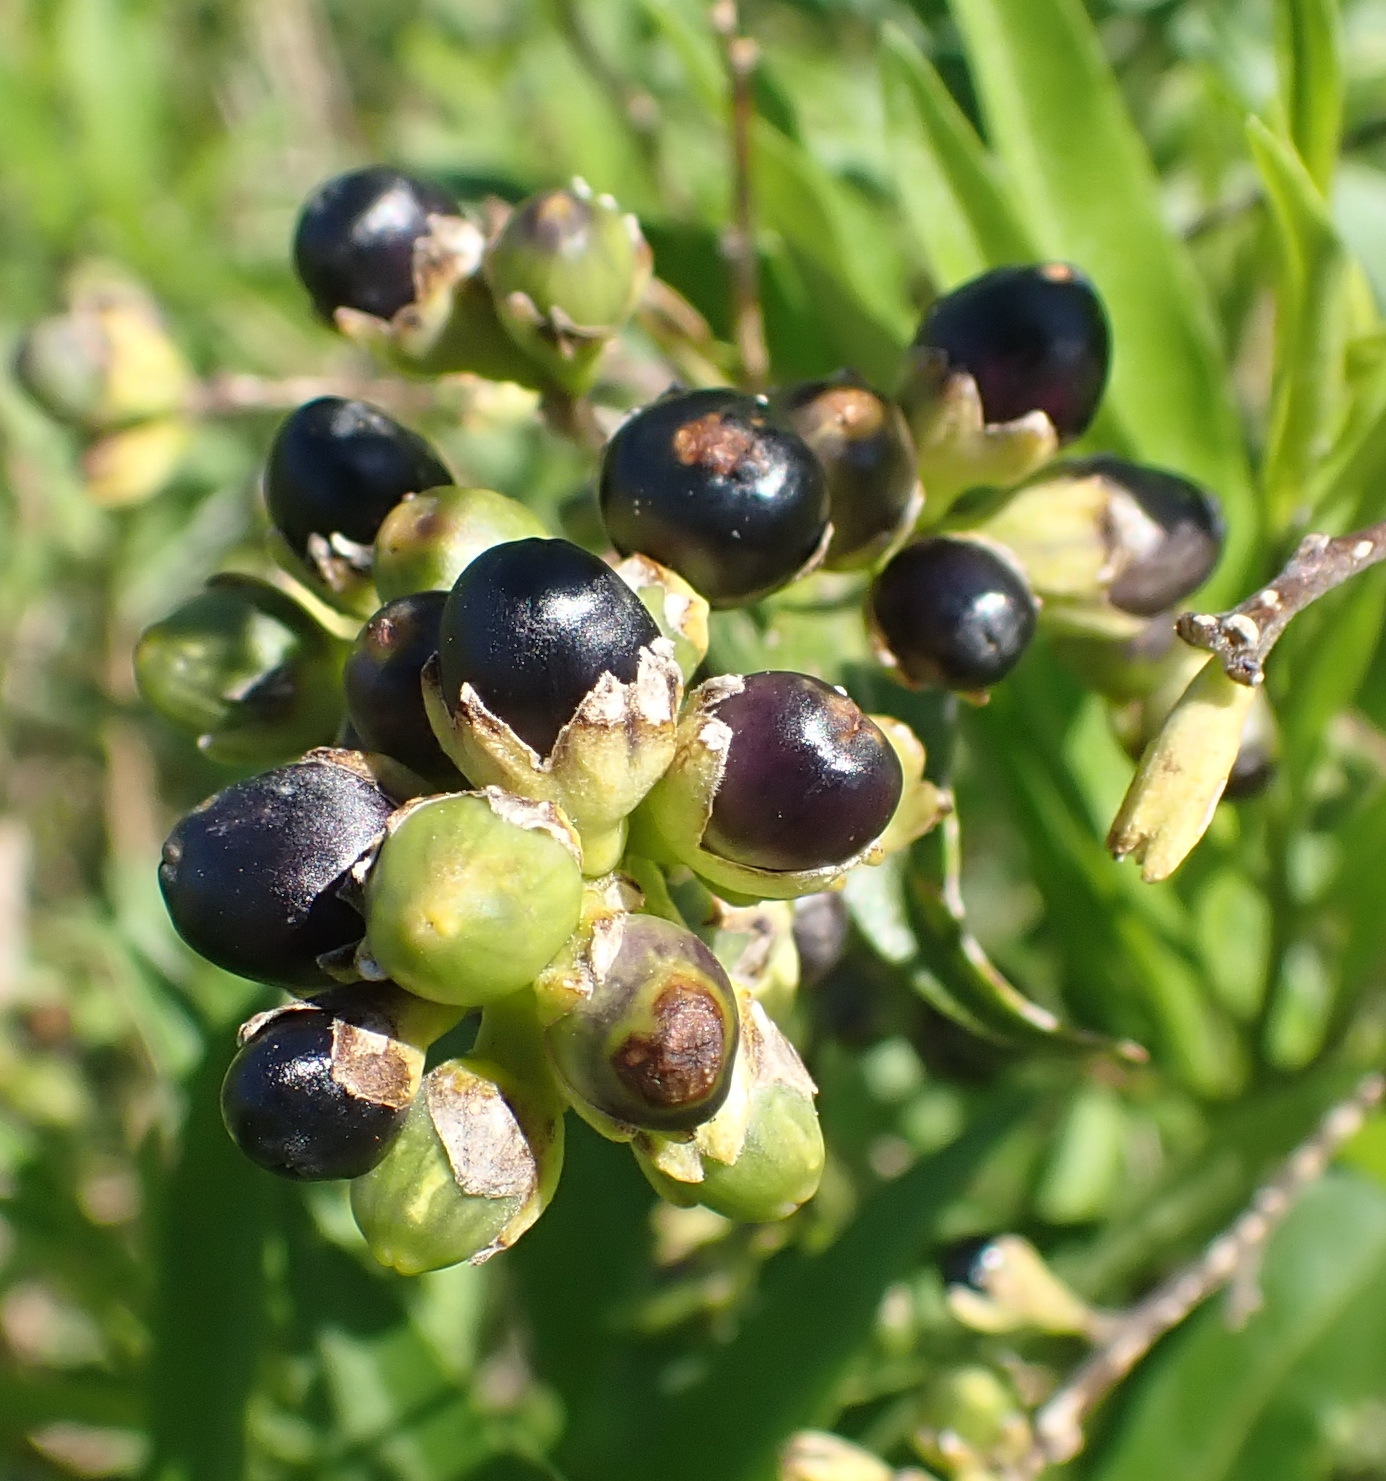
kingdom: Plantae
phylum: Tracheophyta
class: Magnoliopsida
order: Solanales
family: Solanaceae
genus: Cestrum
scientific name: Cestrum laevigatum
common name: Inkberry
